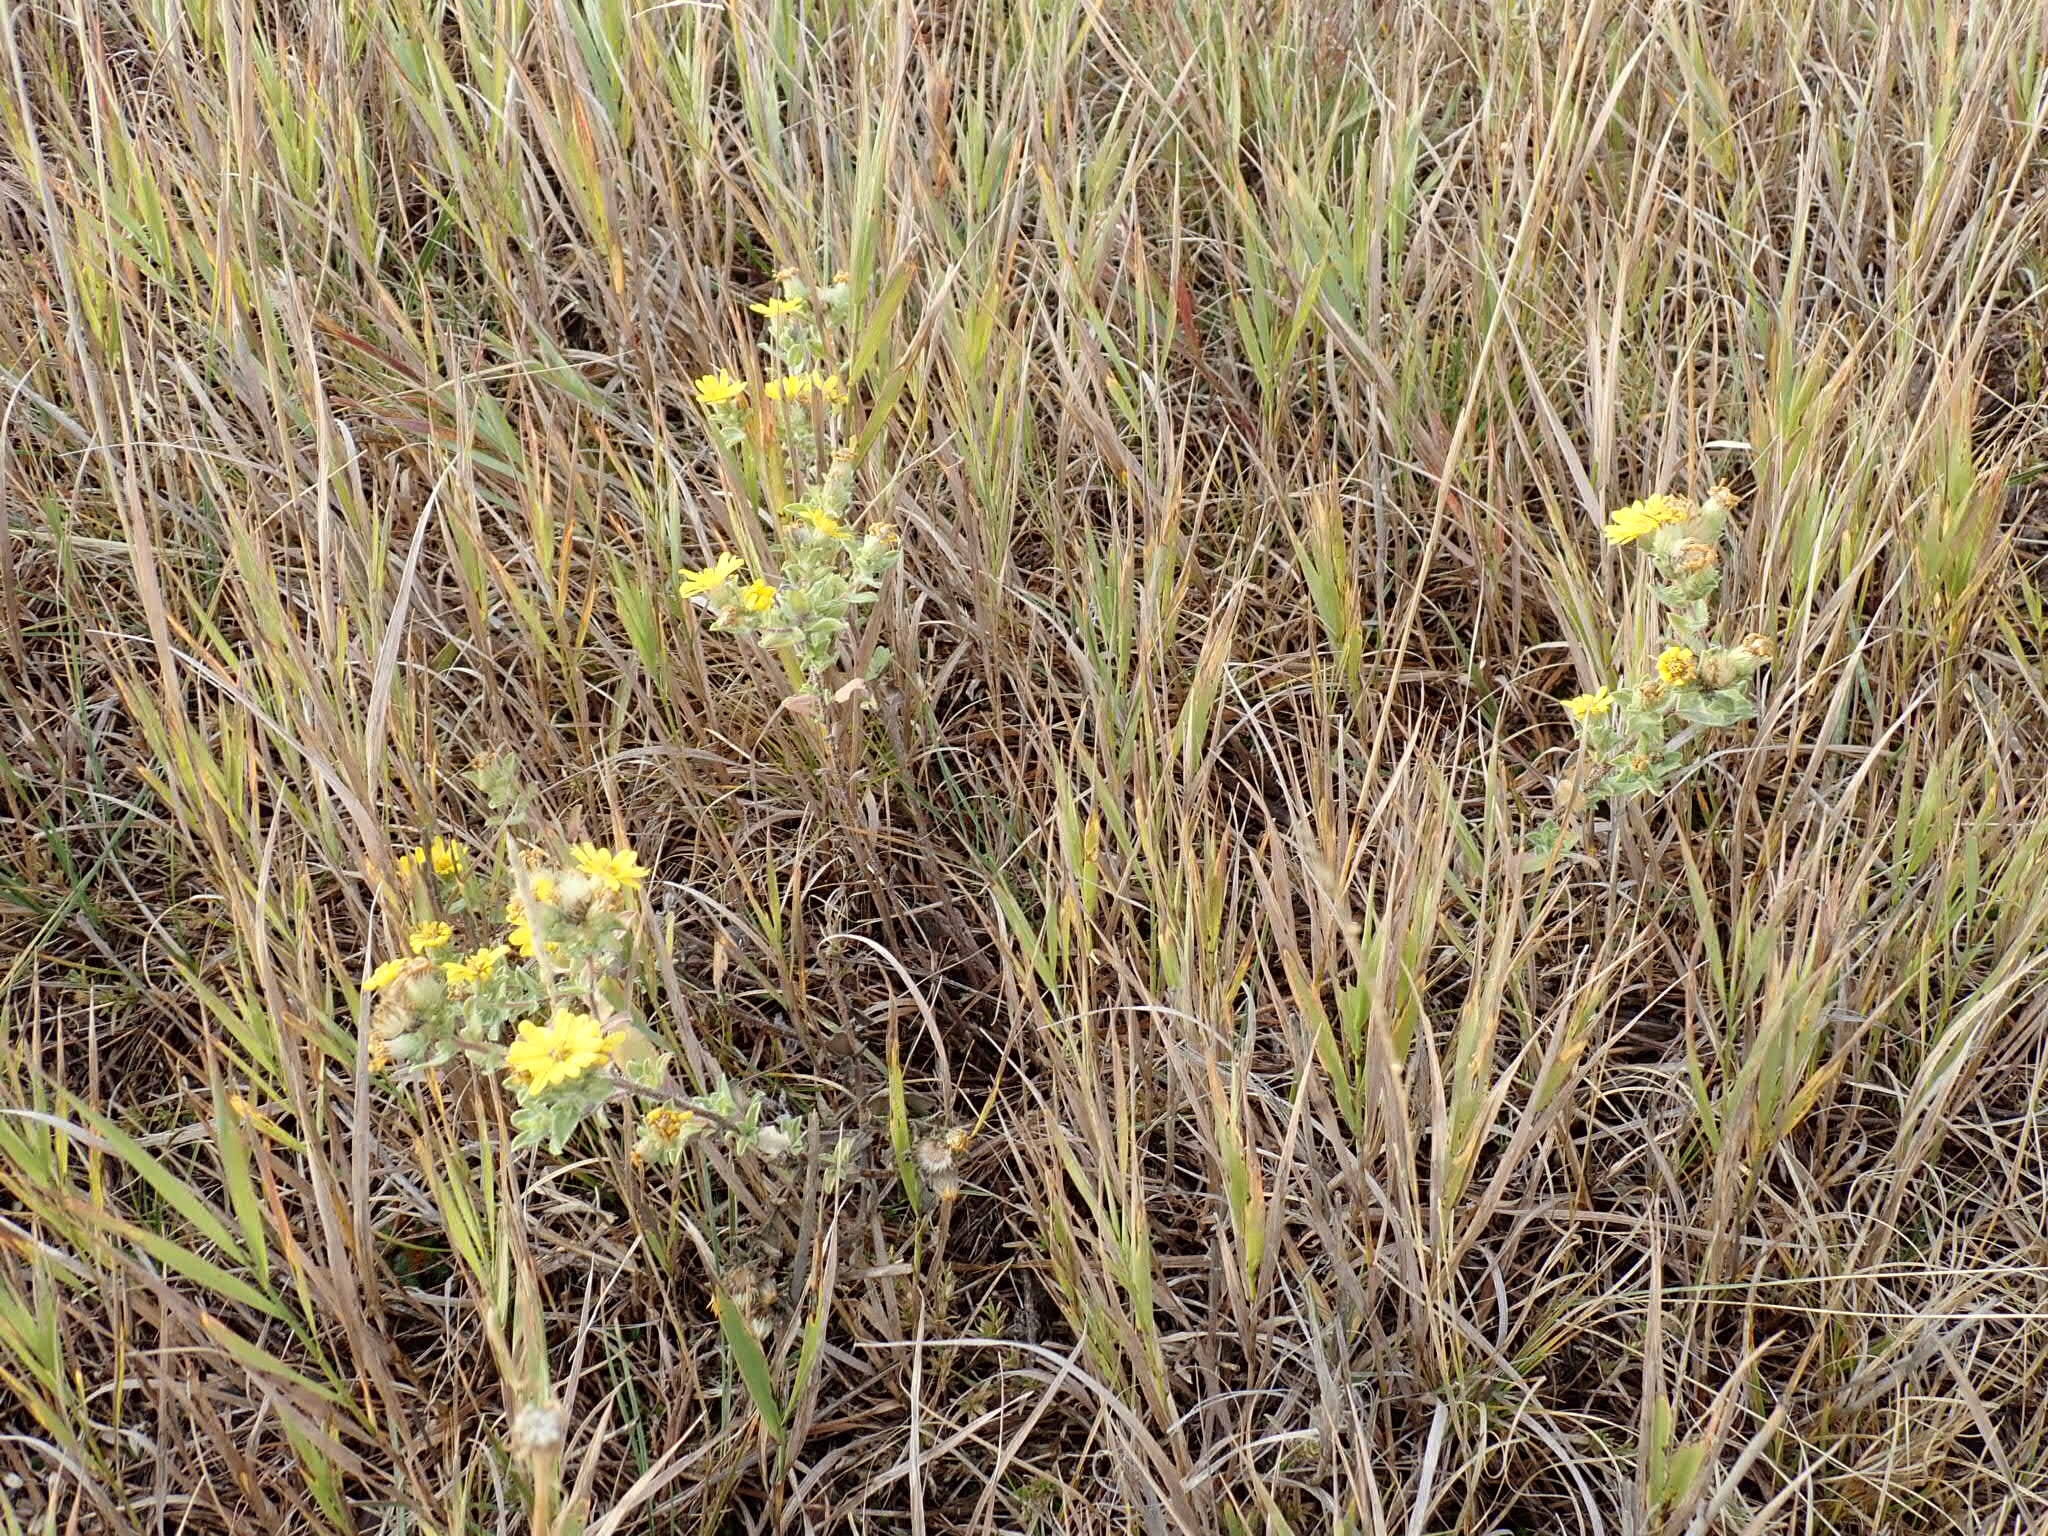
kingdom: Plantae
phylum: Tracheophyta
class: Magnoliopsida
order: Asterales
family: Asteraceae
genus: Heterotheca
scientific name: Heterotheca villosa
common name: Hairy false goldenaster
